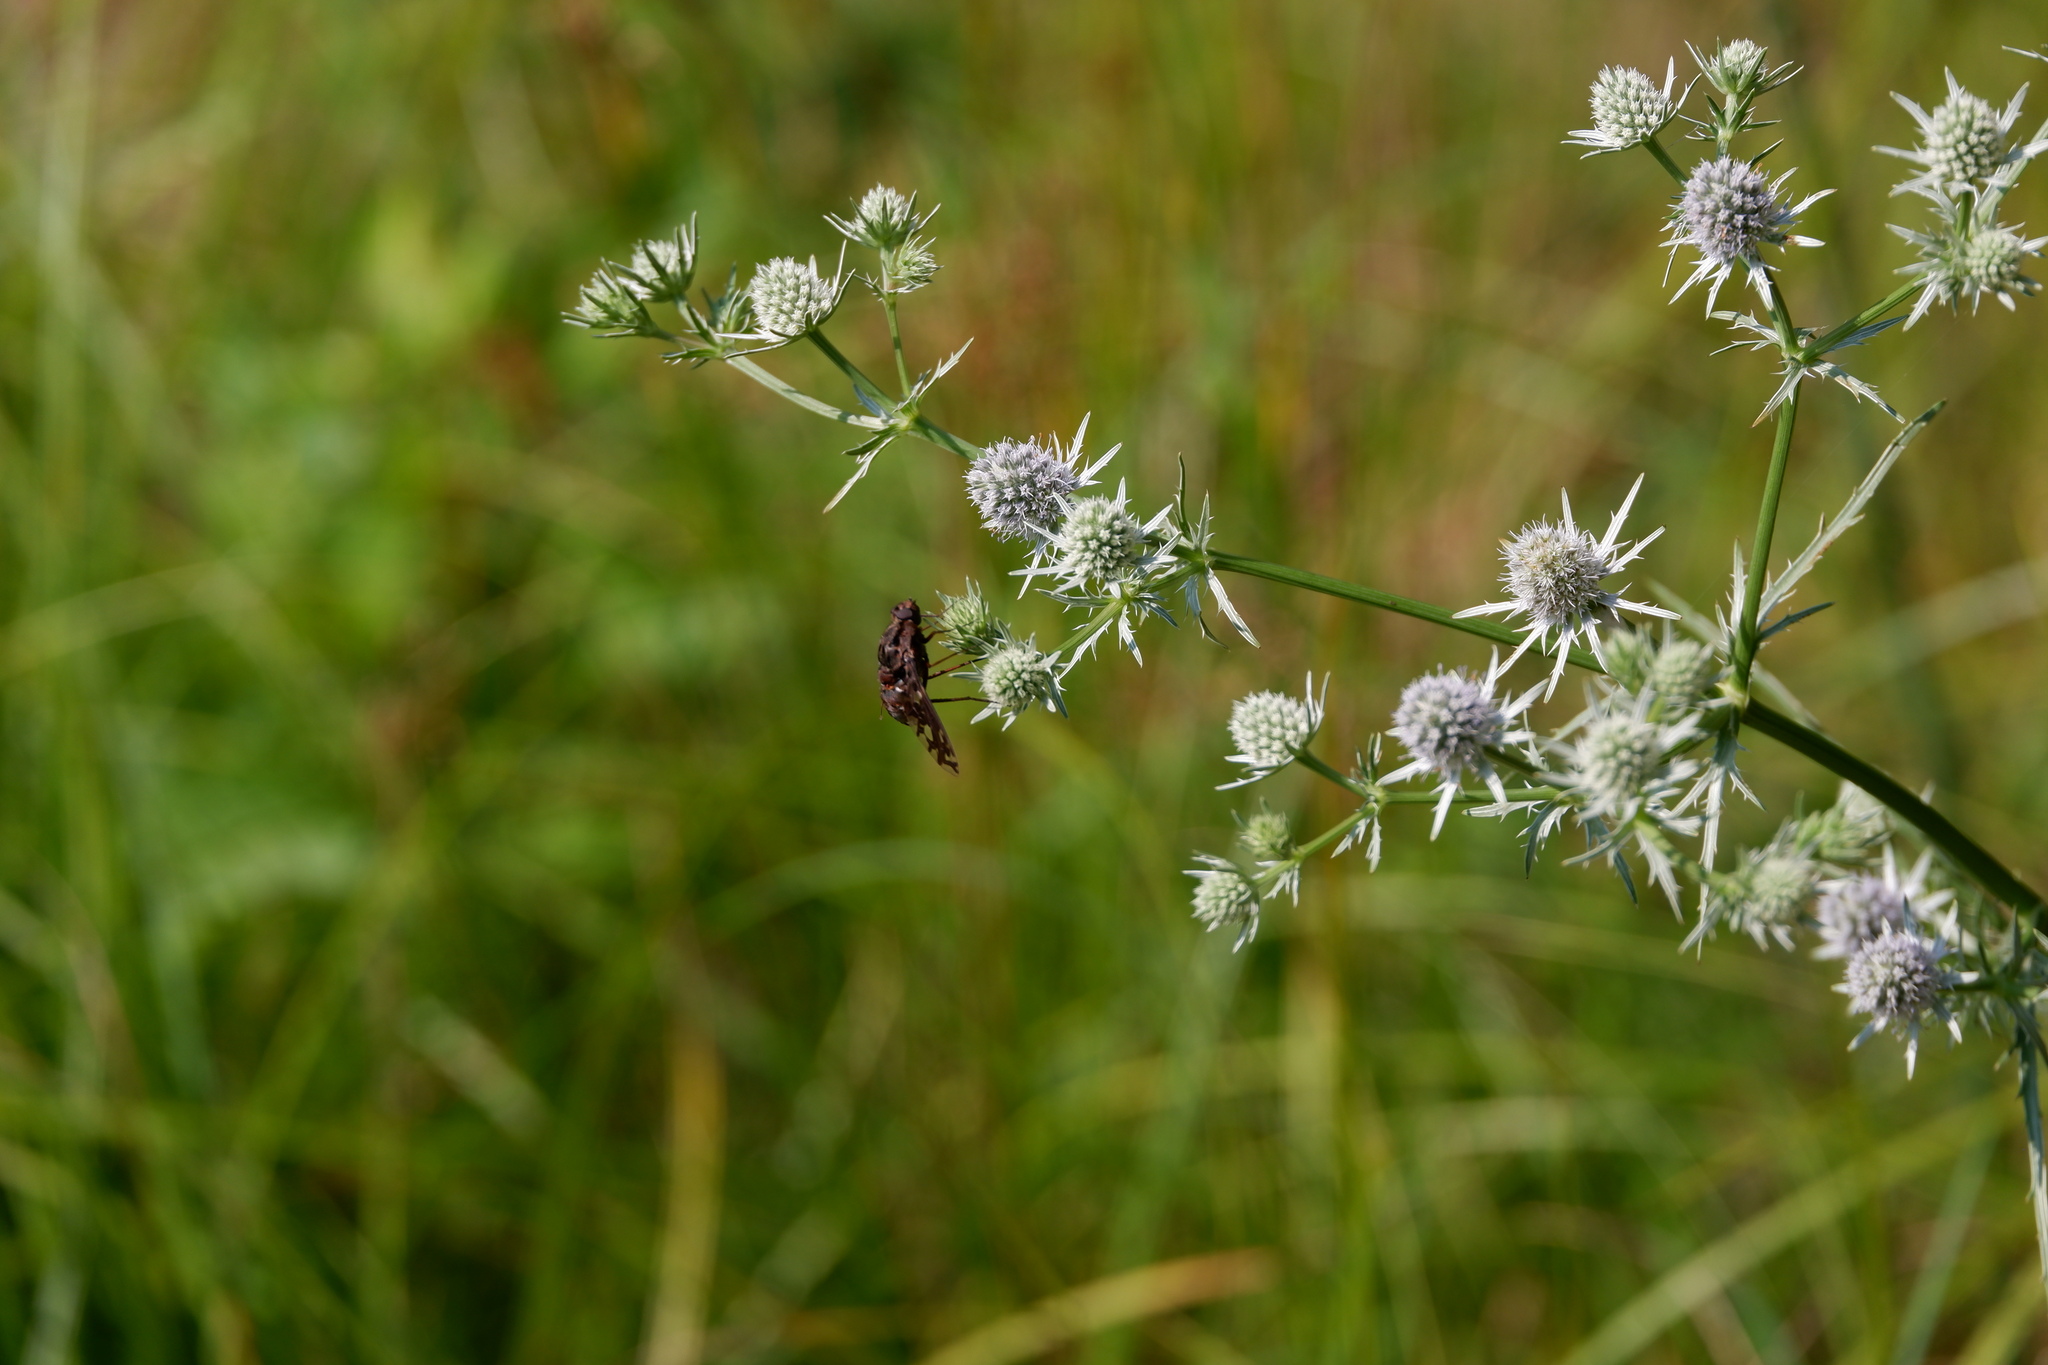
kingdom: Animalia
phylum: Arthropoda
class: Insecta
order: Diptera
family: Bombyliidae
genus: Xenox
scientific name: Xenox tigrinus
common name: Tiger bee fly
